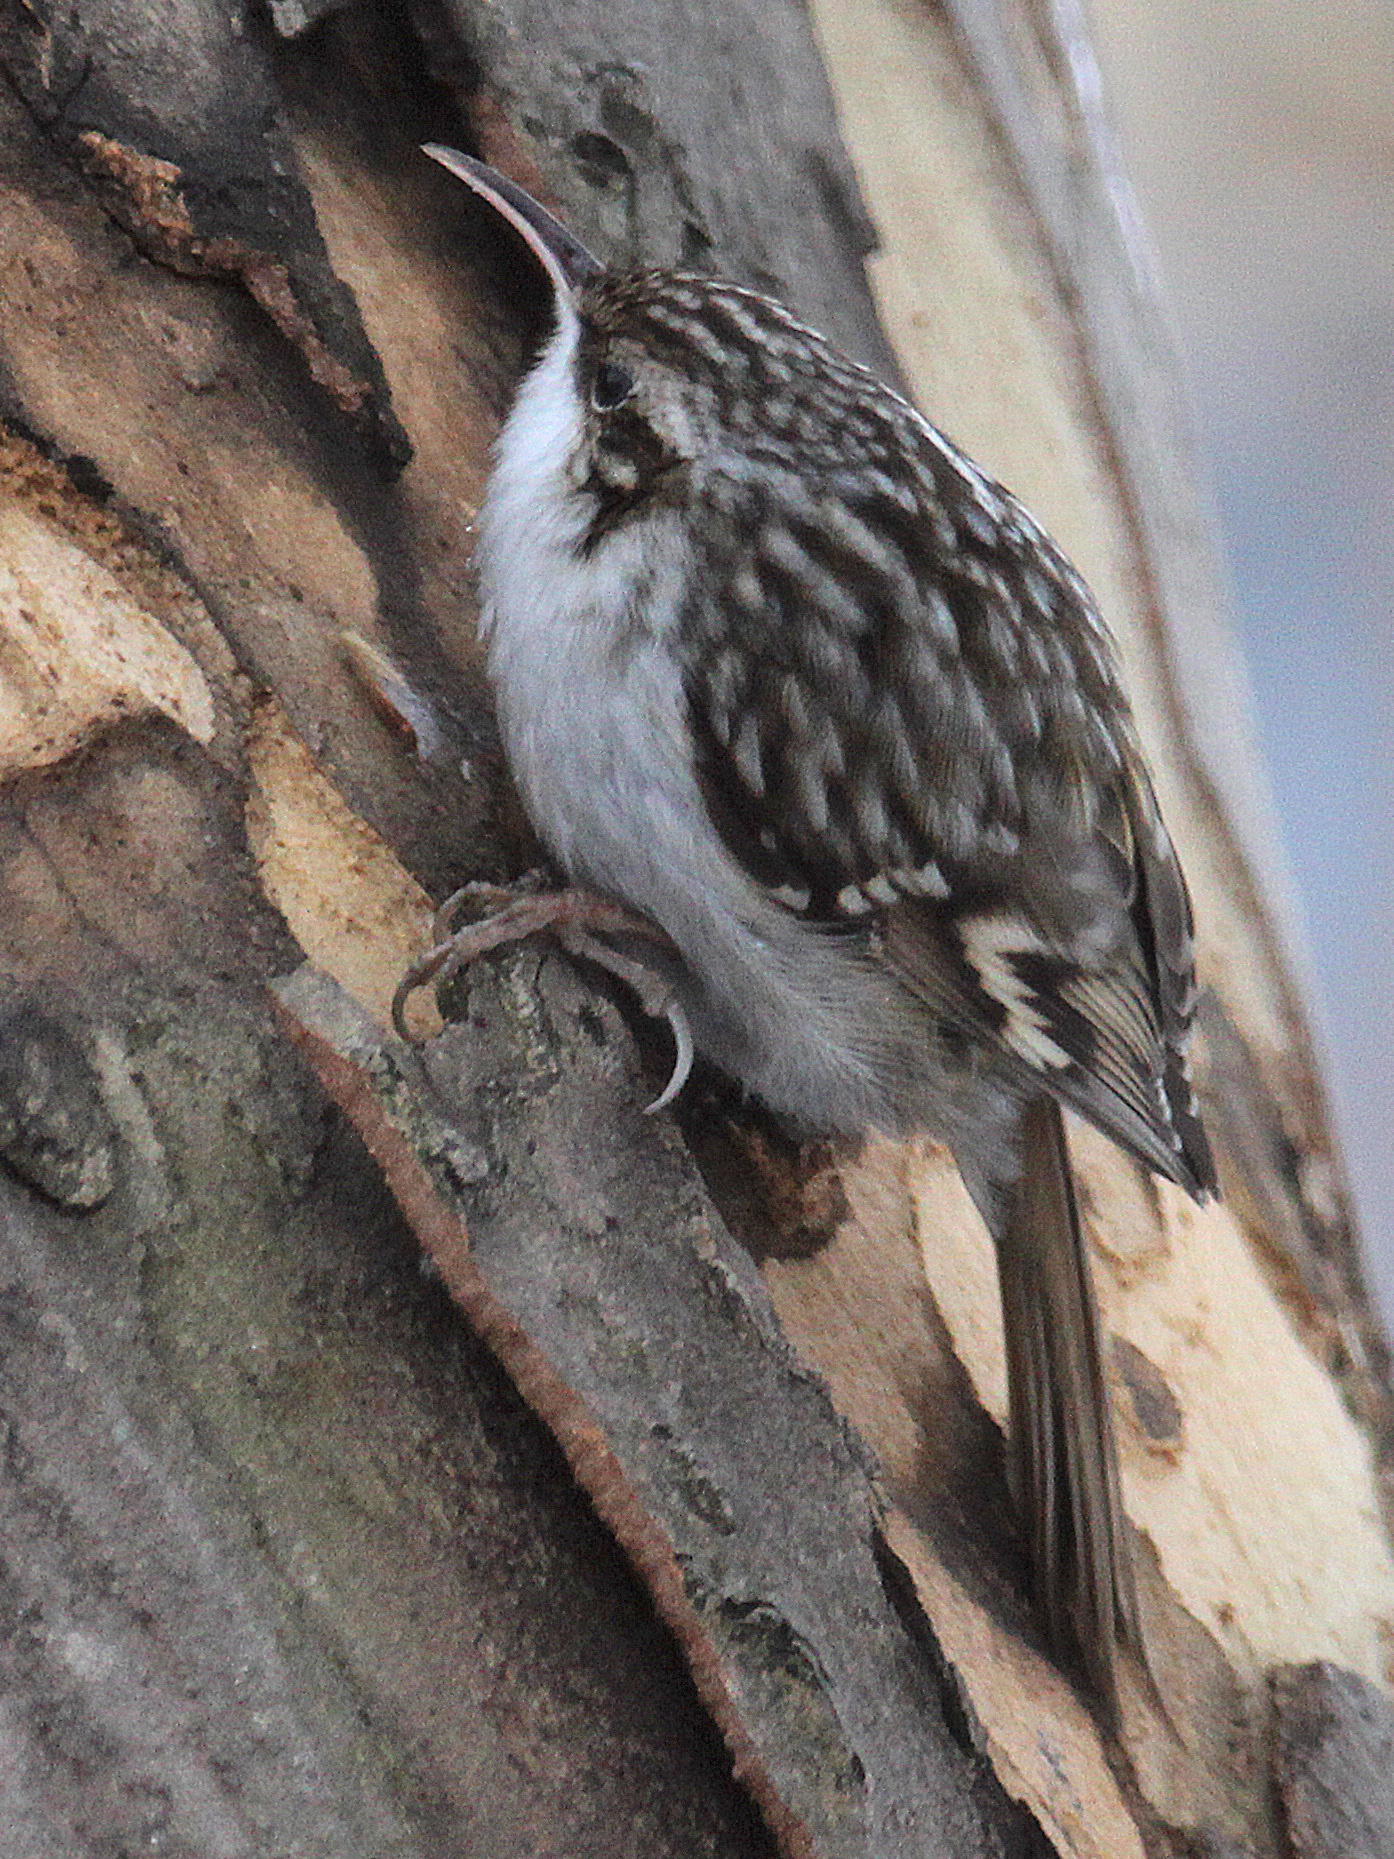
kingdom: Animalia
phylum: Chordata
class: Aves
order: Passeriformes
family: Certhiidae
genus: Certhia
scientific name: Certhia brachydactyla
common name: Short-toed treecreeper
